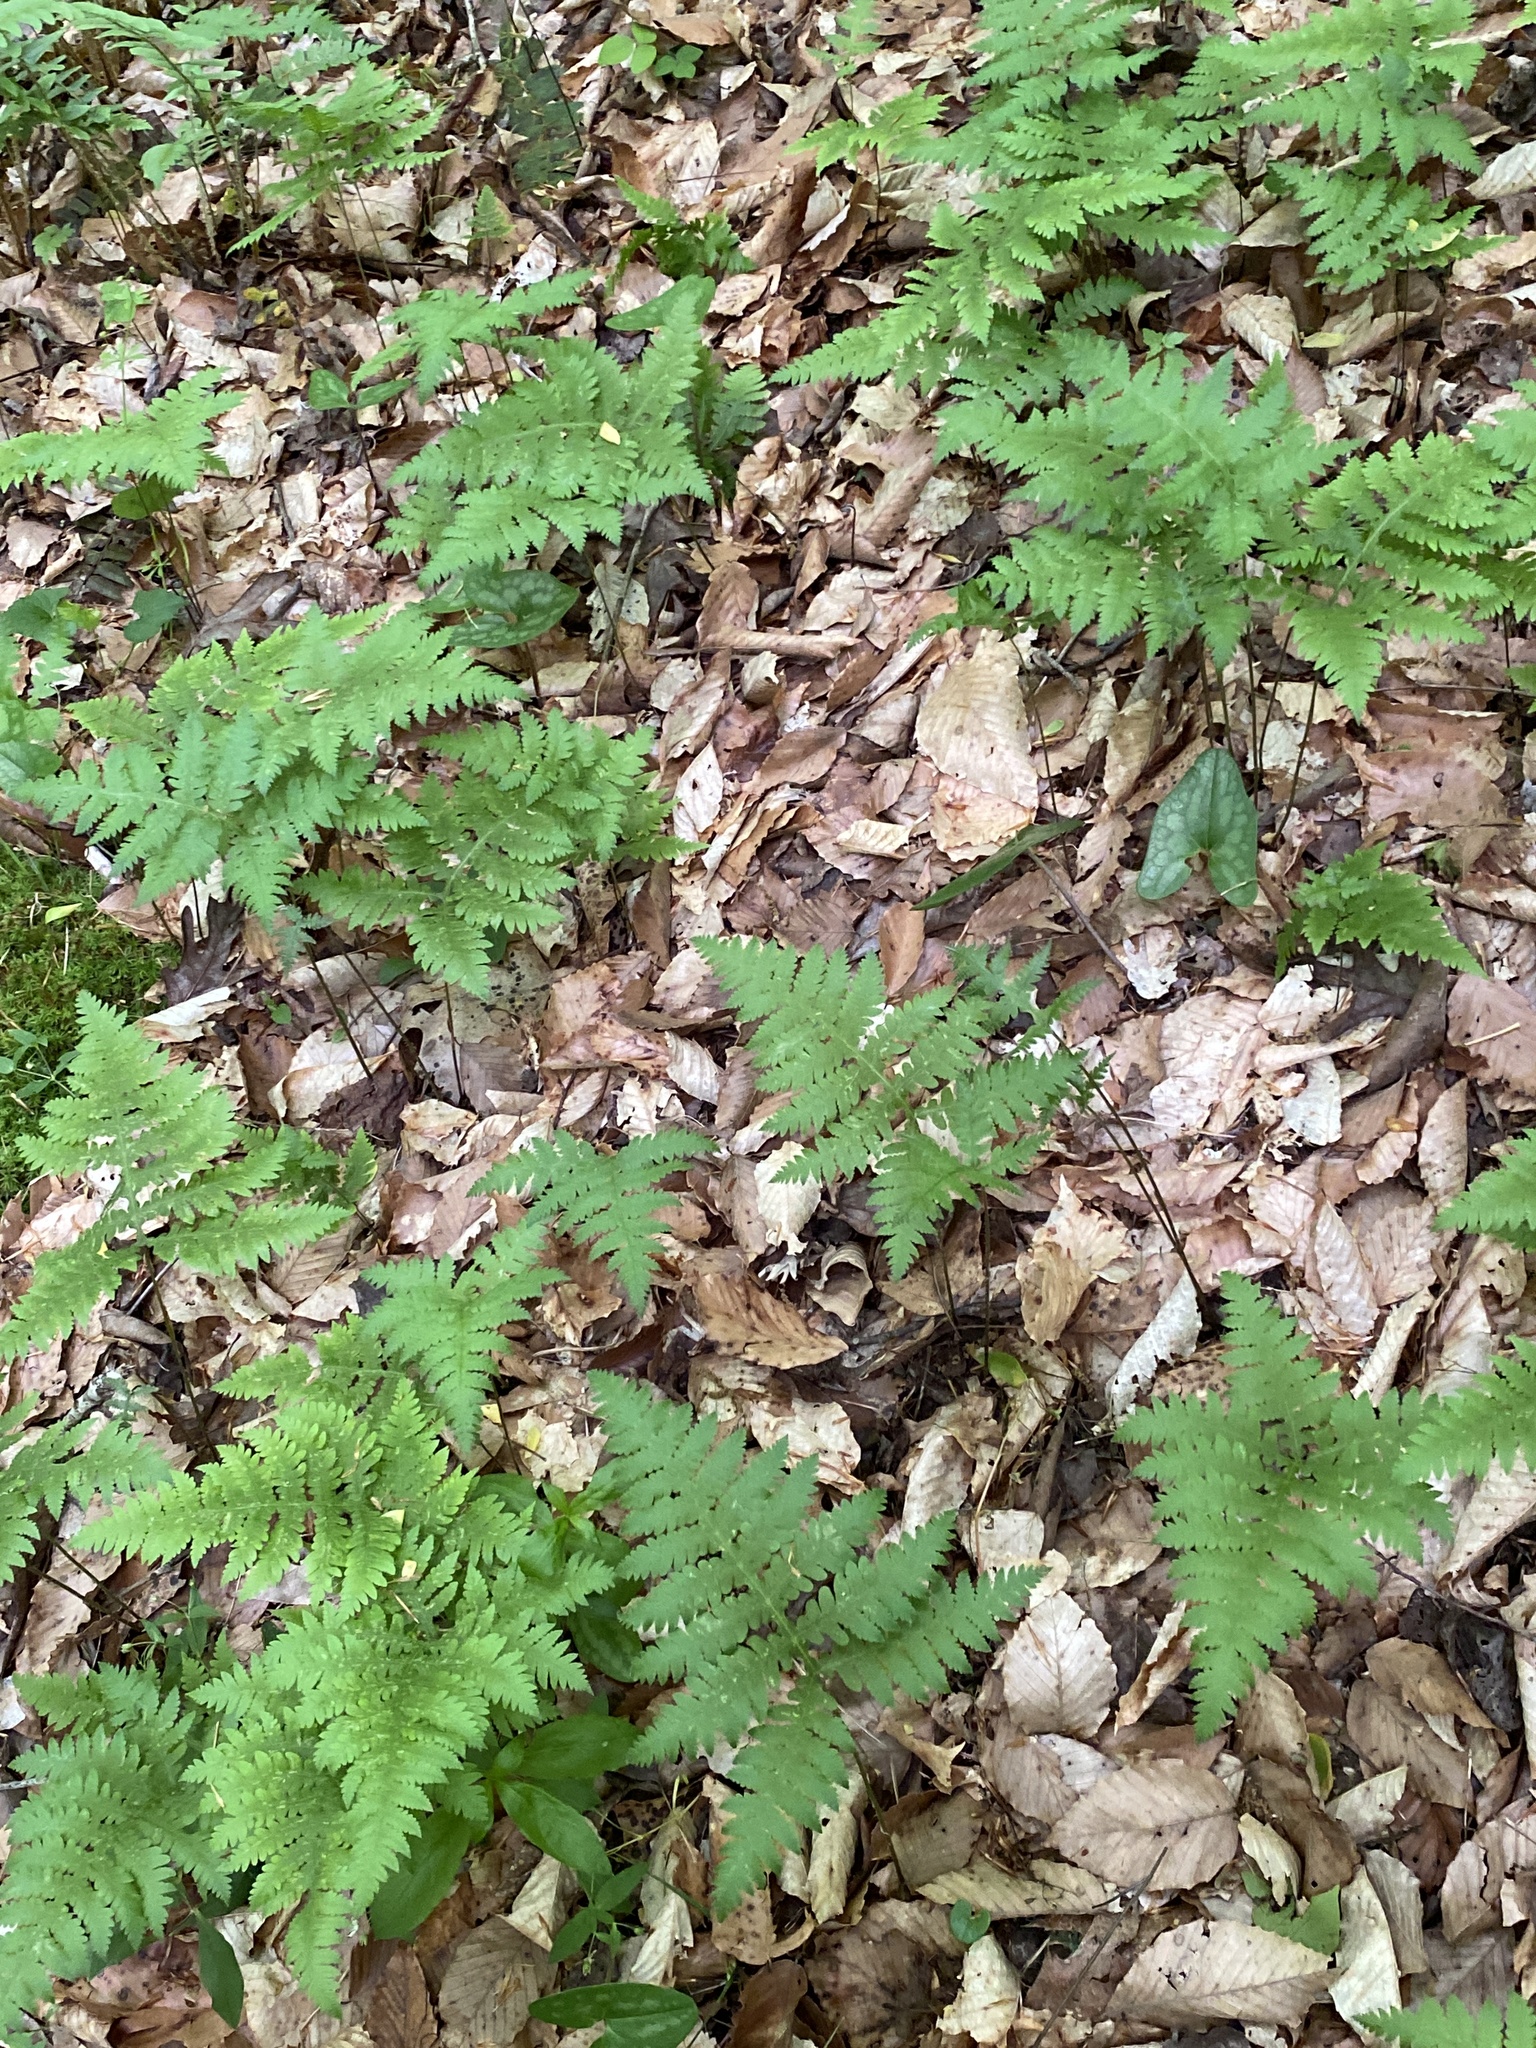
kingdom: Plantae
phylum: Tracheophyta
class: Polypodiopsida
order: Polypodiales
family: Thelypteridaceae
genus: Phegopteris
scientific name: Phegopteris hexagonoptera
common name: Broad beech fern
